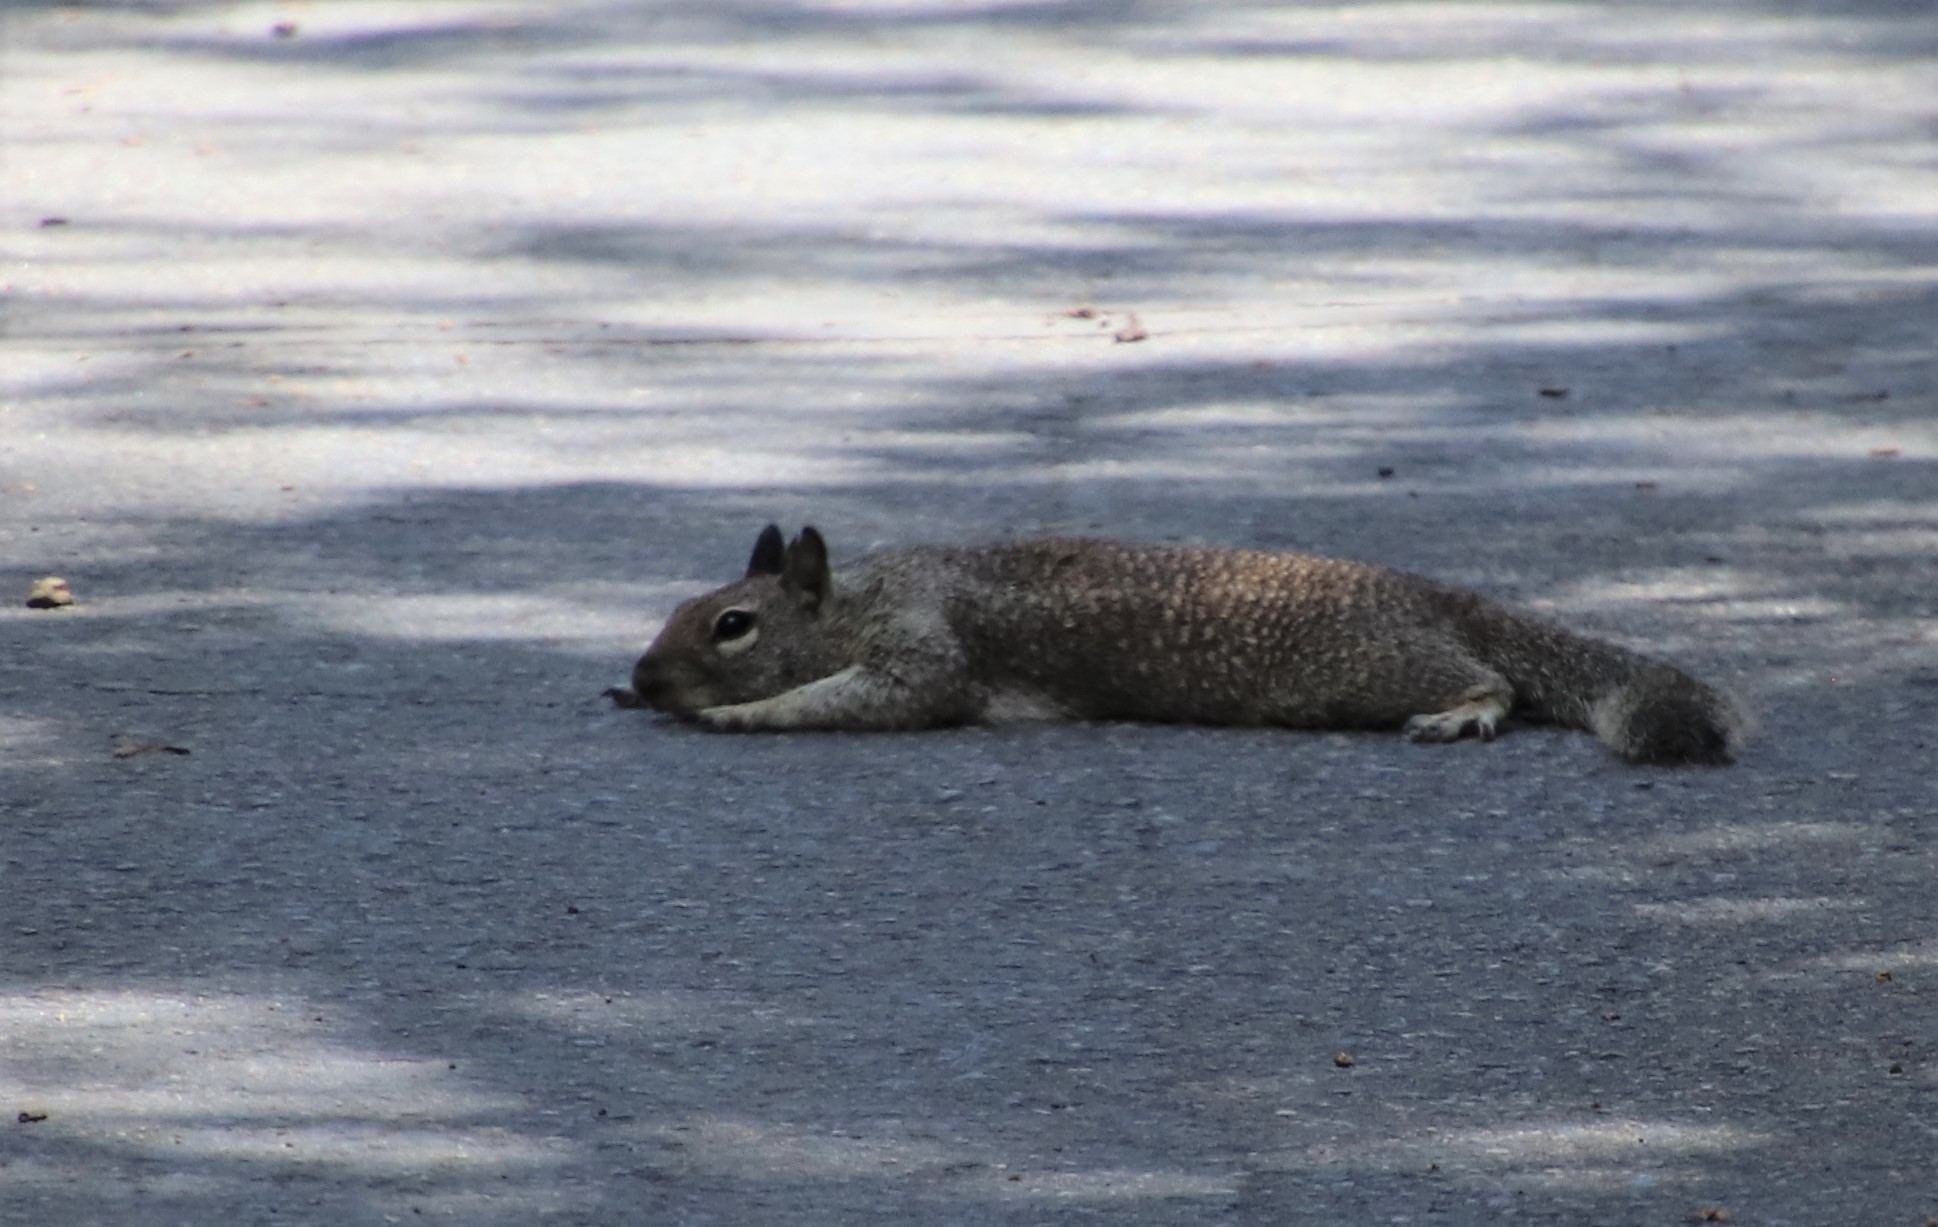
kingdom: Animalia
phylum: Chordata
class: Mammalia
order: Rodentia
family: Sciuridae
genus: Otospermophilus
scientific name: Otospermophilus beecheyi
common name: California ground squirrel
